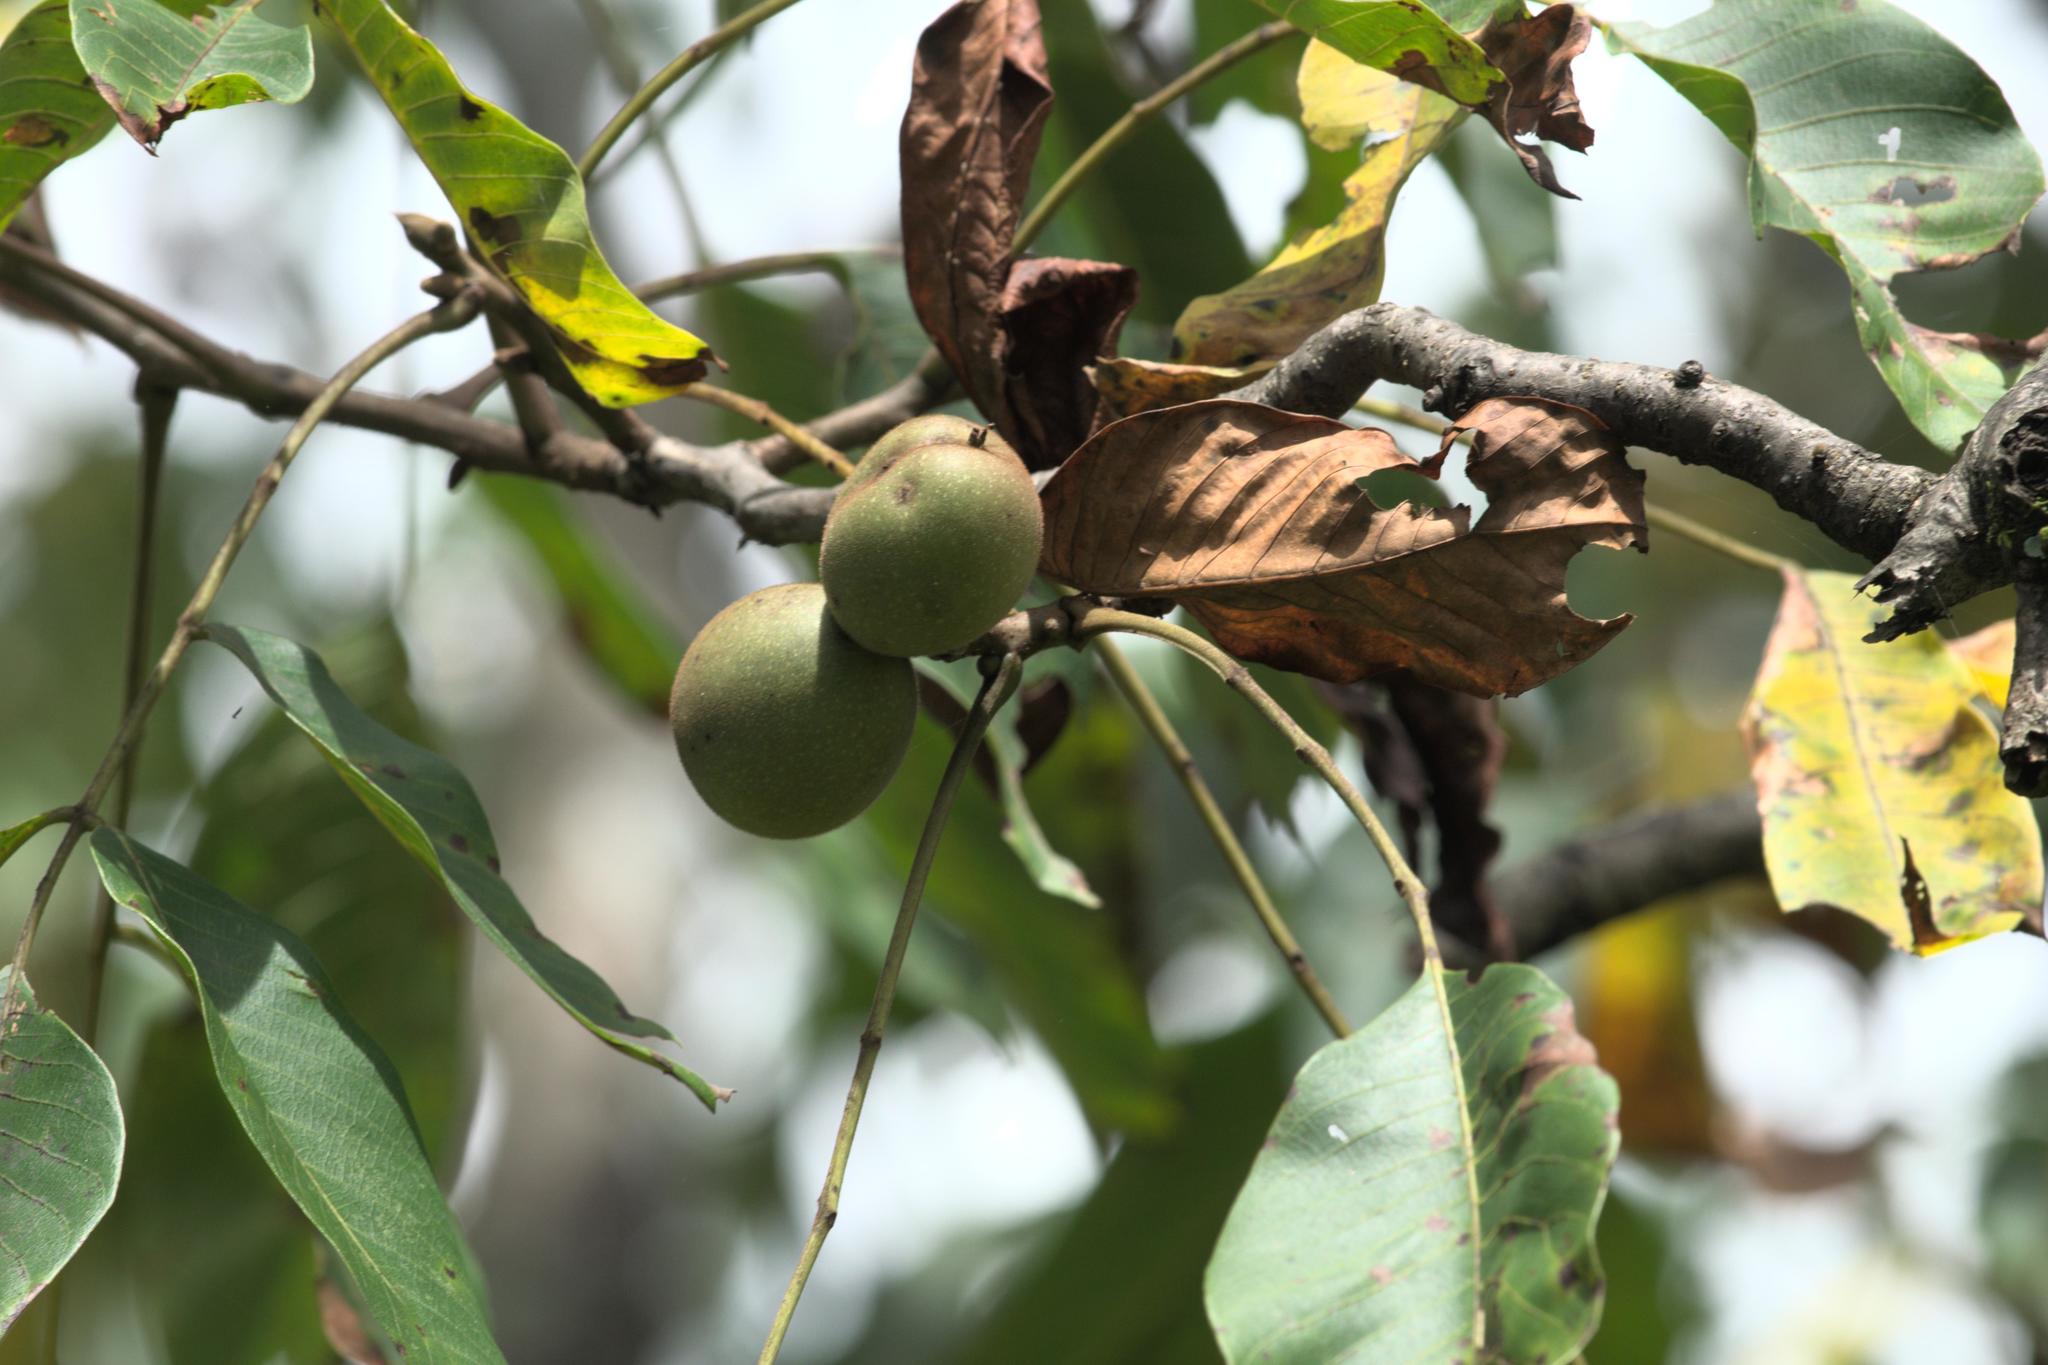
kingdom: Plantae
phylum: Tracheophyta
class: Magnoliopsida
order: Fagales
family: Juglandaceae
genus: Juglans
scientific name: Juglans regia
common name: Walnut
